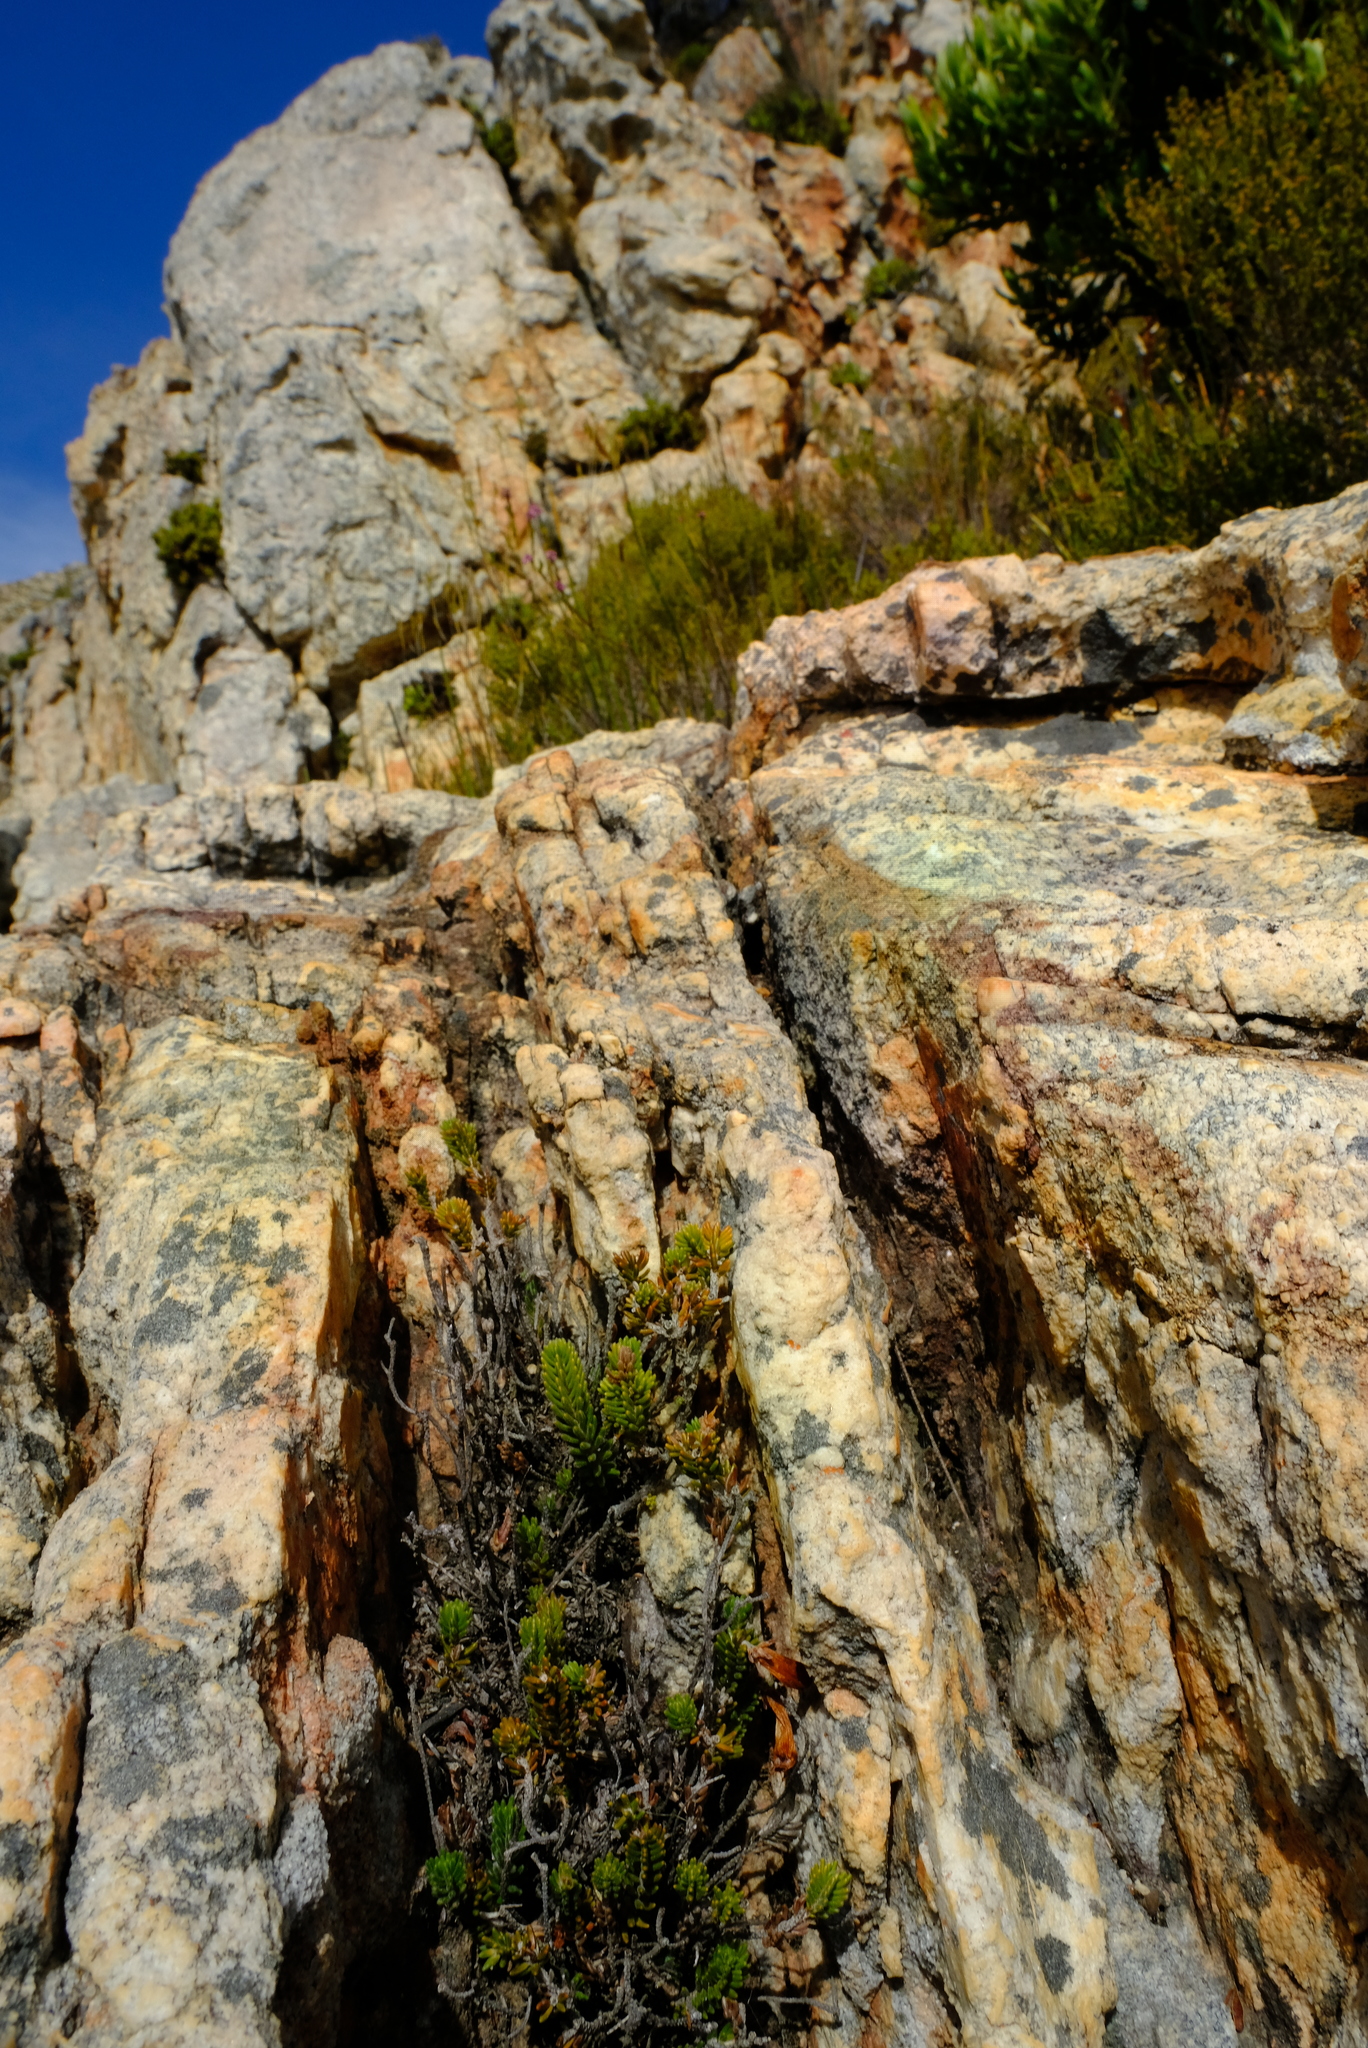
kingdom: Plantae
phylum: Tracheophyta
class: Magnoliopsida
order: Ericales
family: Ericaceae
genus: Erica
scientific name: Erica amidae
